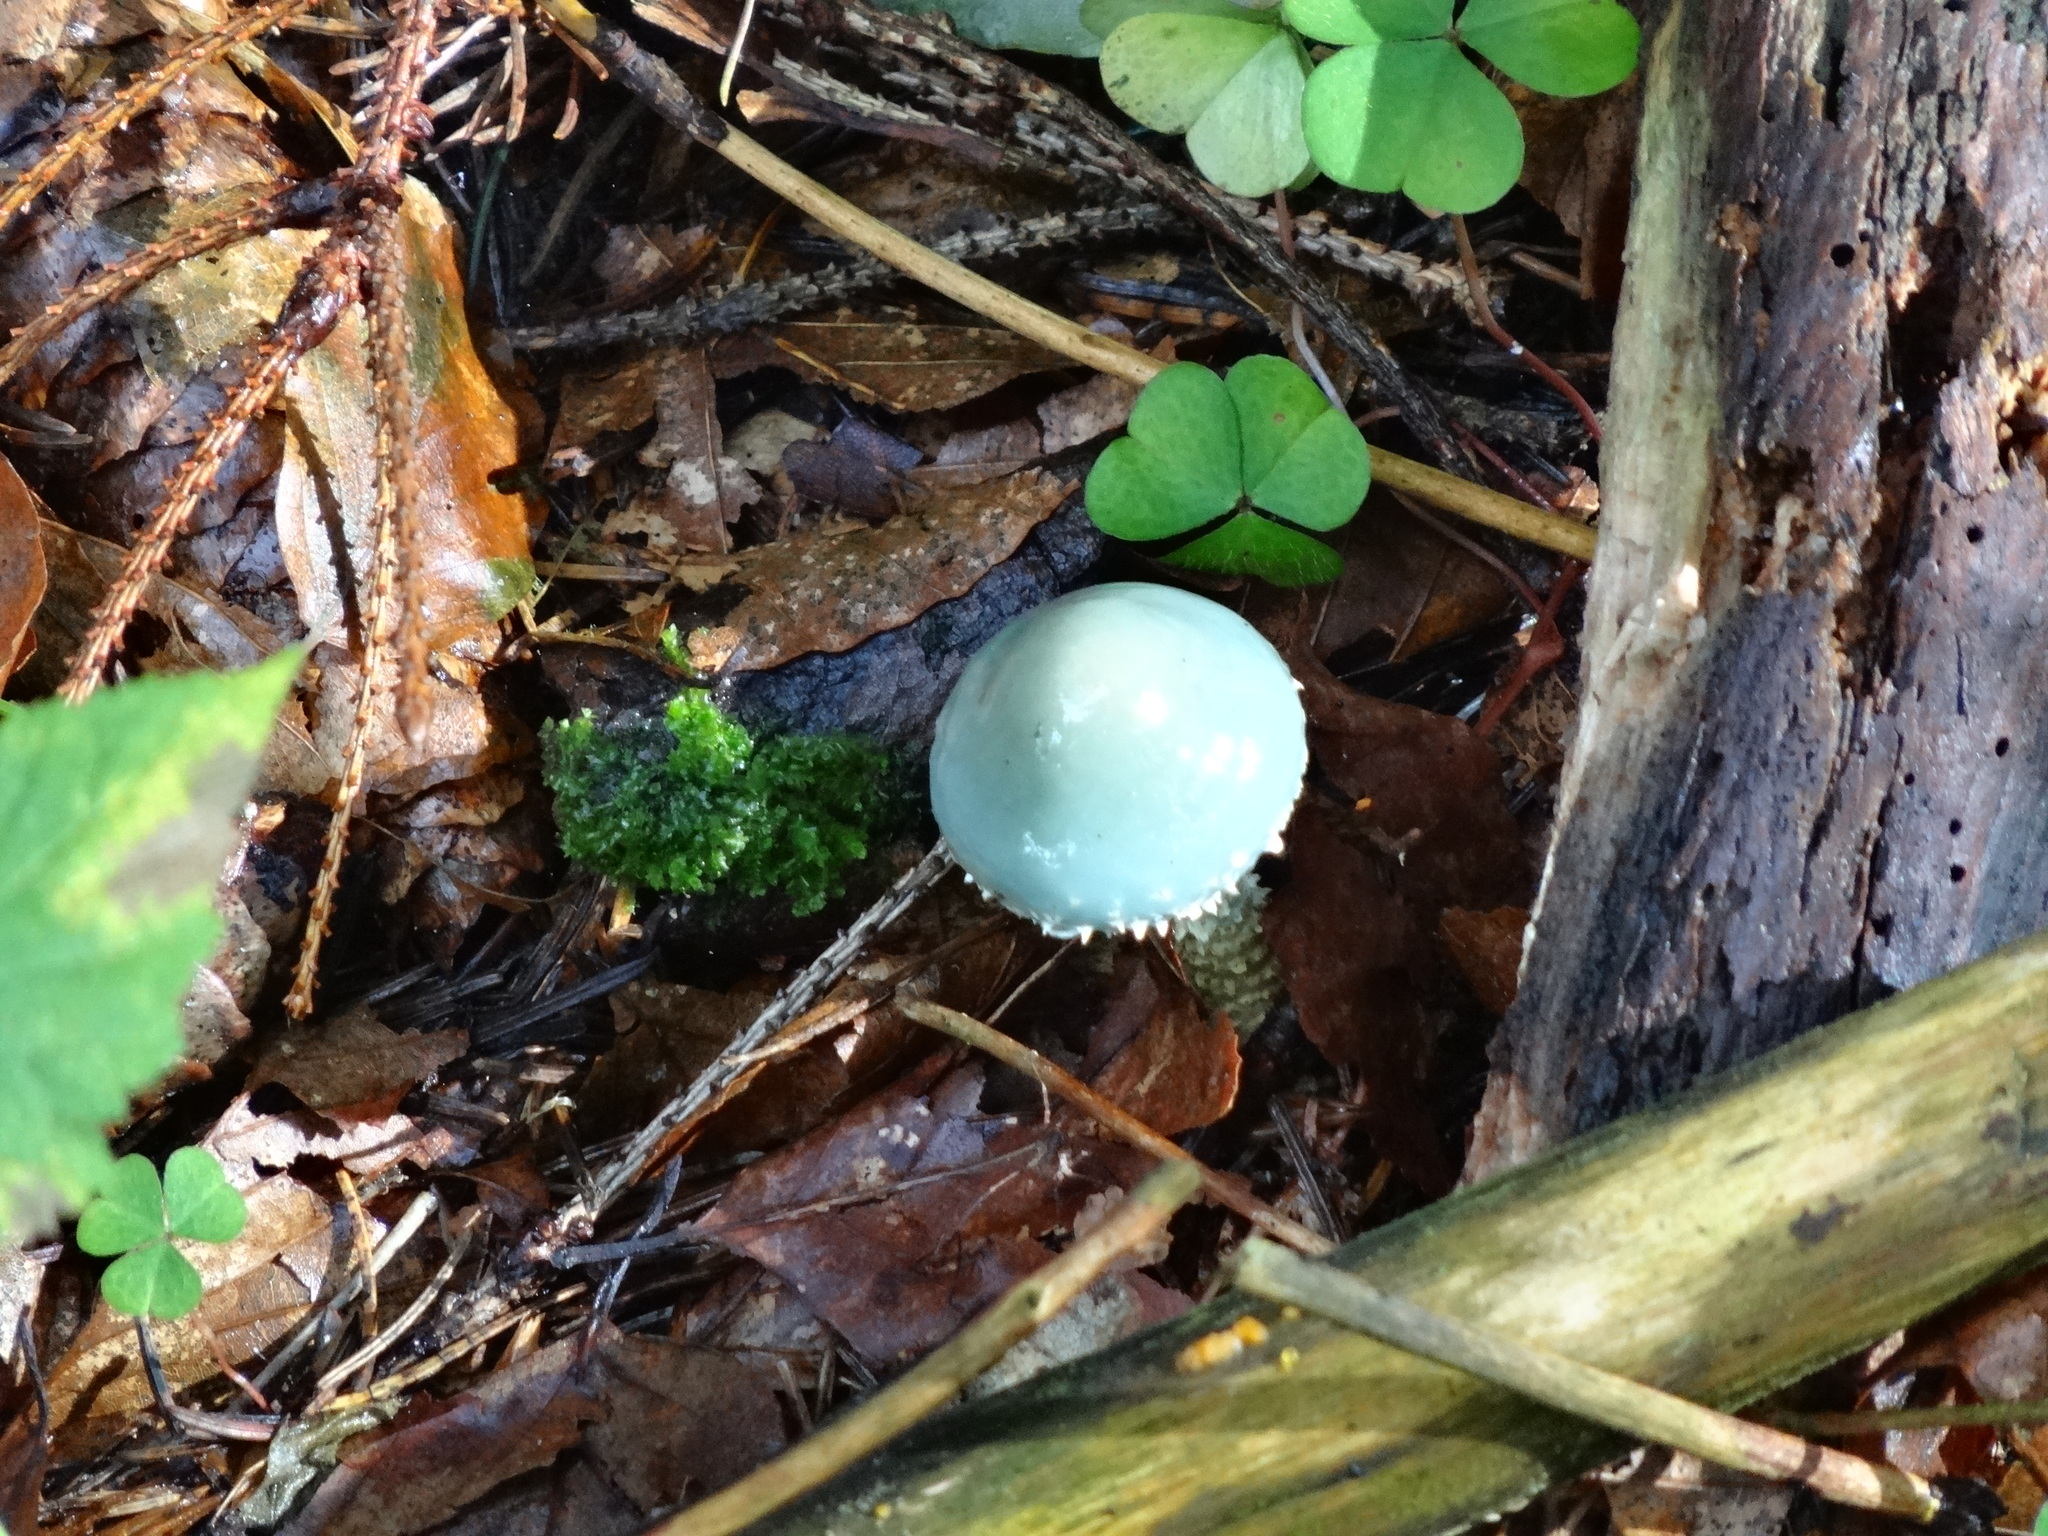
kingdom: Fungi
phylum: Basidiomycota
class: Agaricomycetes
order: Agaricales
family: Strophariaceae
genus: Stropharia
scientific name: Stropharia aeruginosa
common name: Verdigris roundhead
